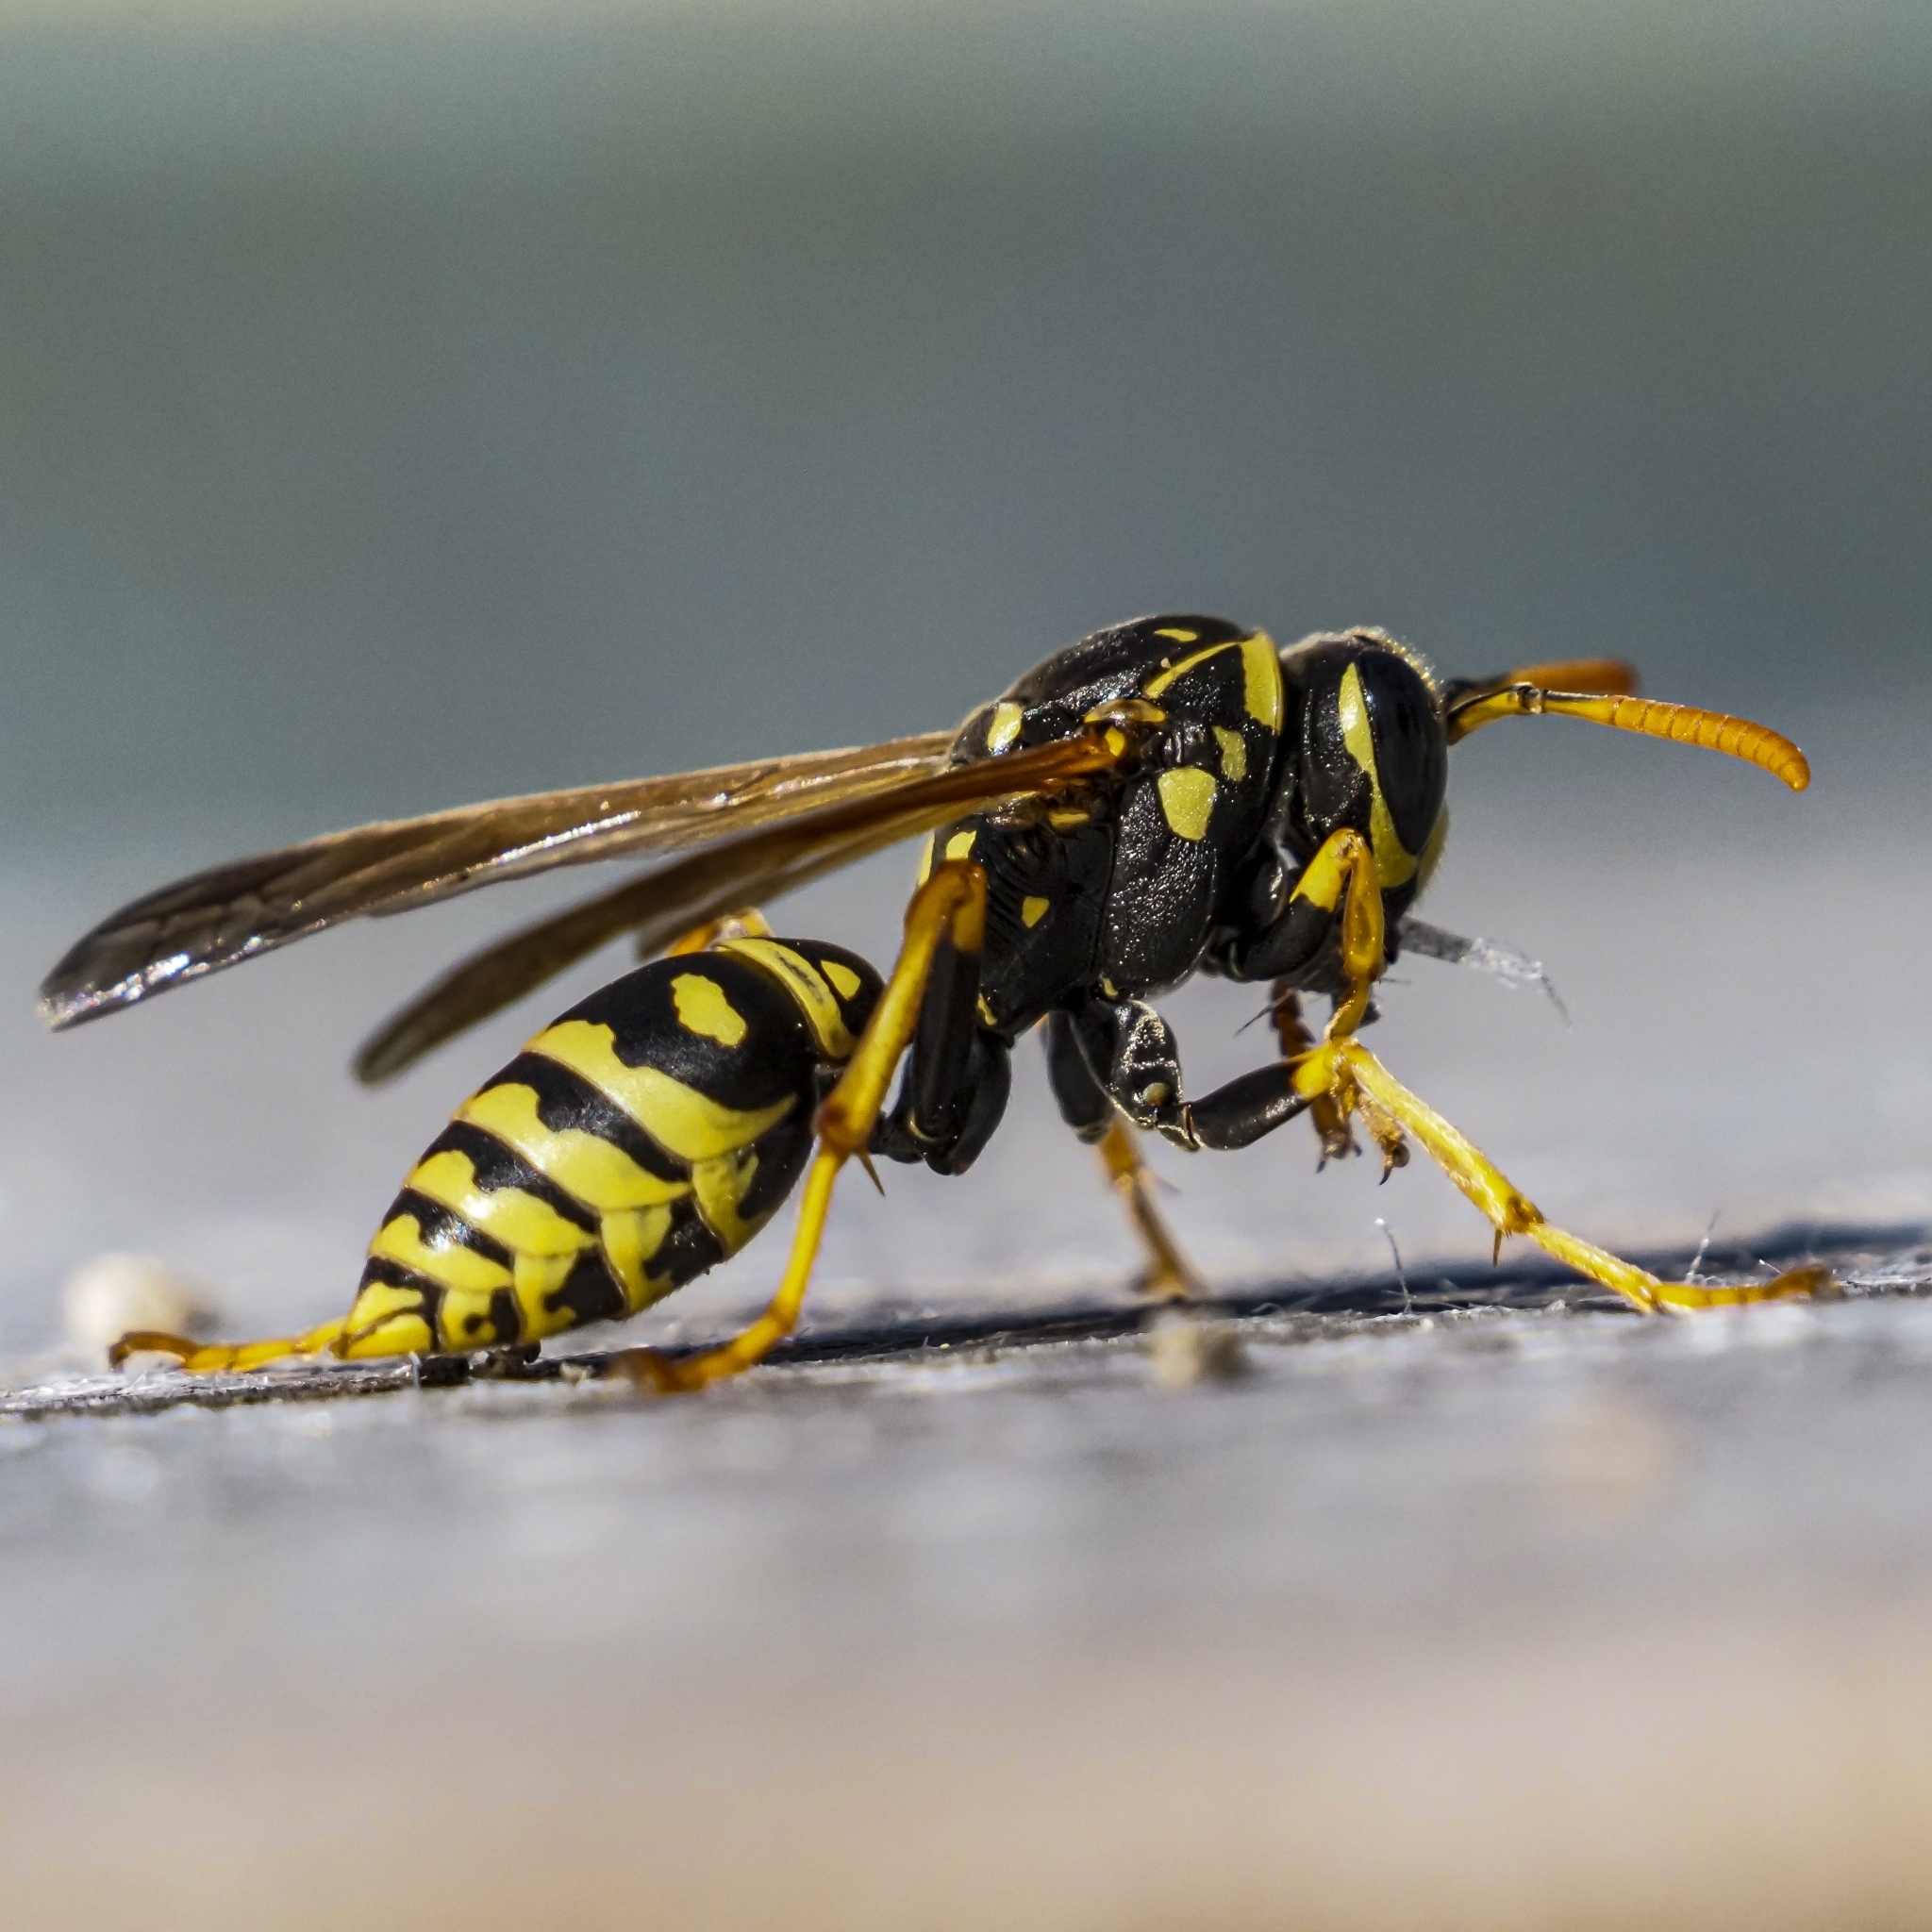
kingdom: Animalia
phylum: Arthropoda
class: Insecta
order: Hymenoptera
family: Eumenidae
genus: Polistes
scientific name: Polistes dominula
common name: Paper wasp
